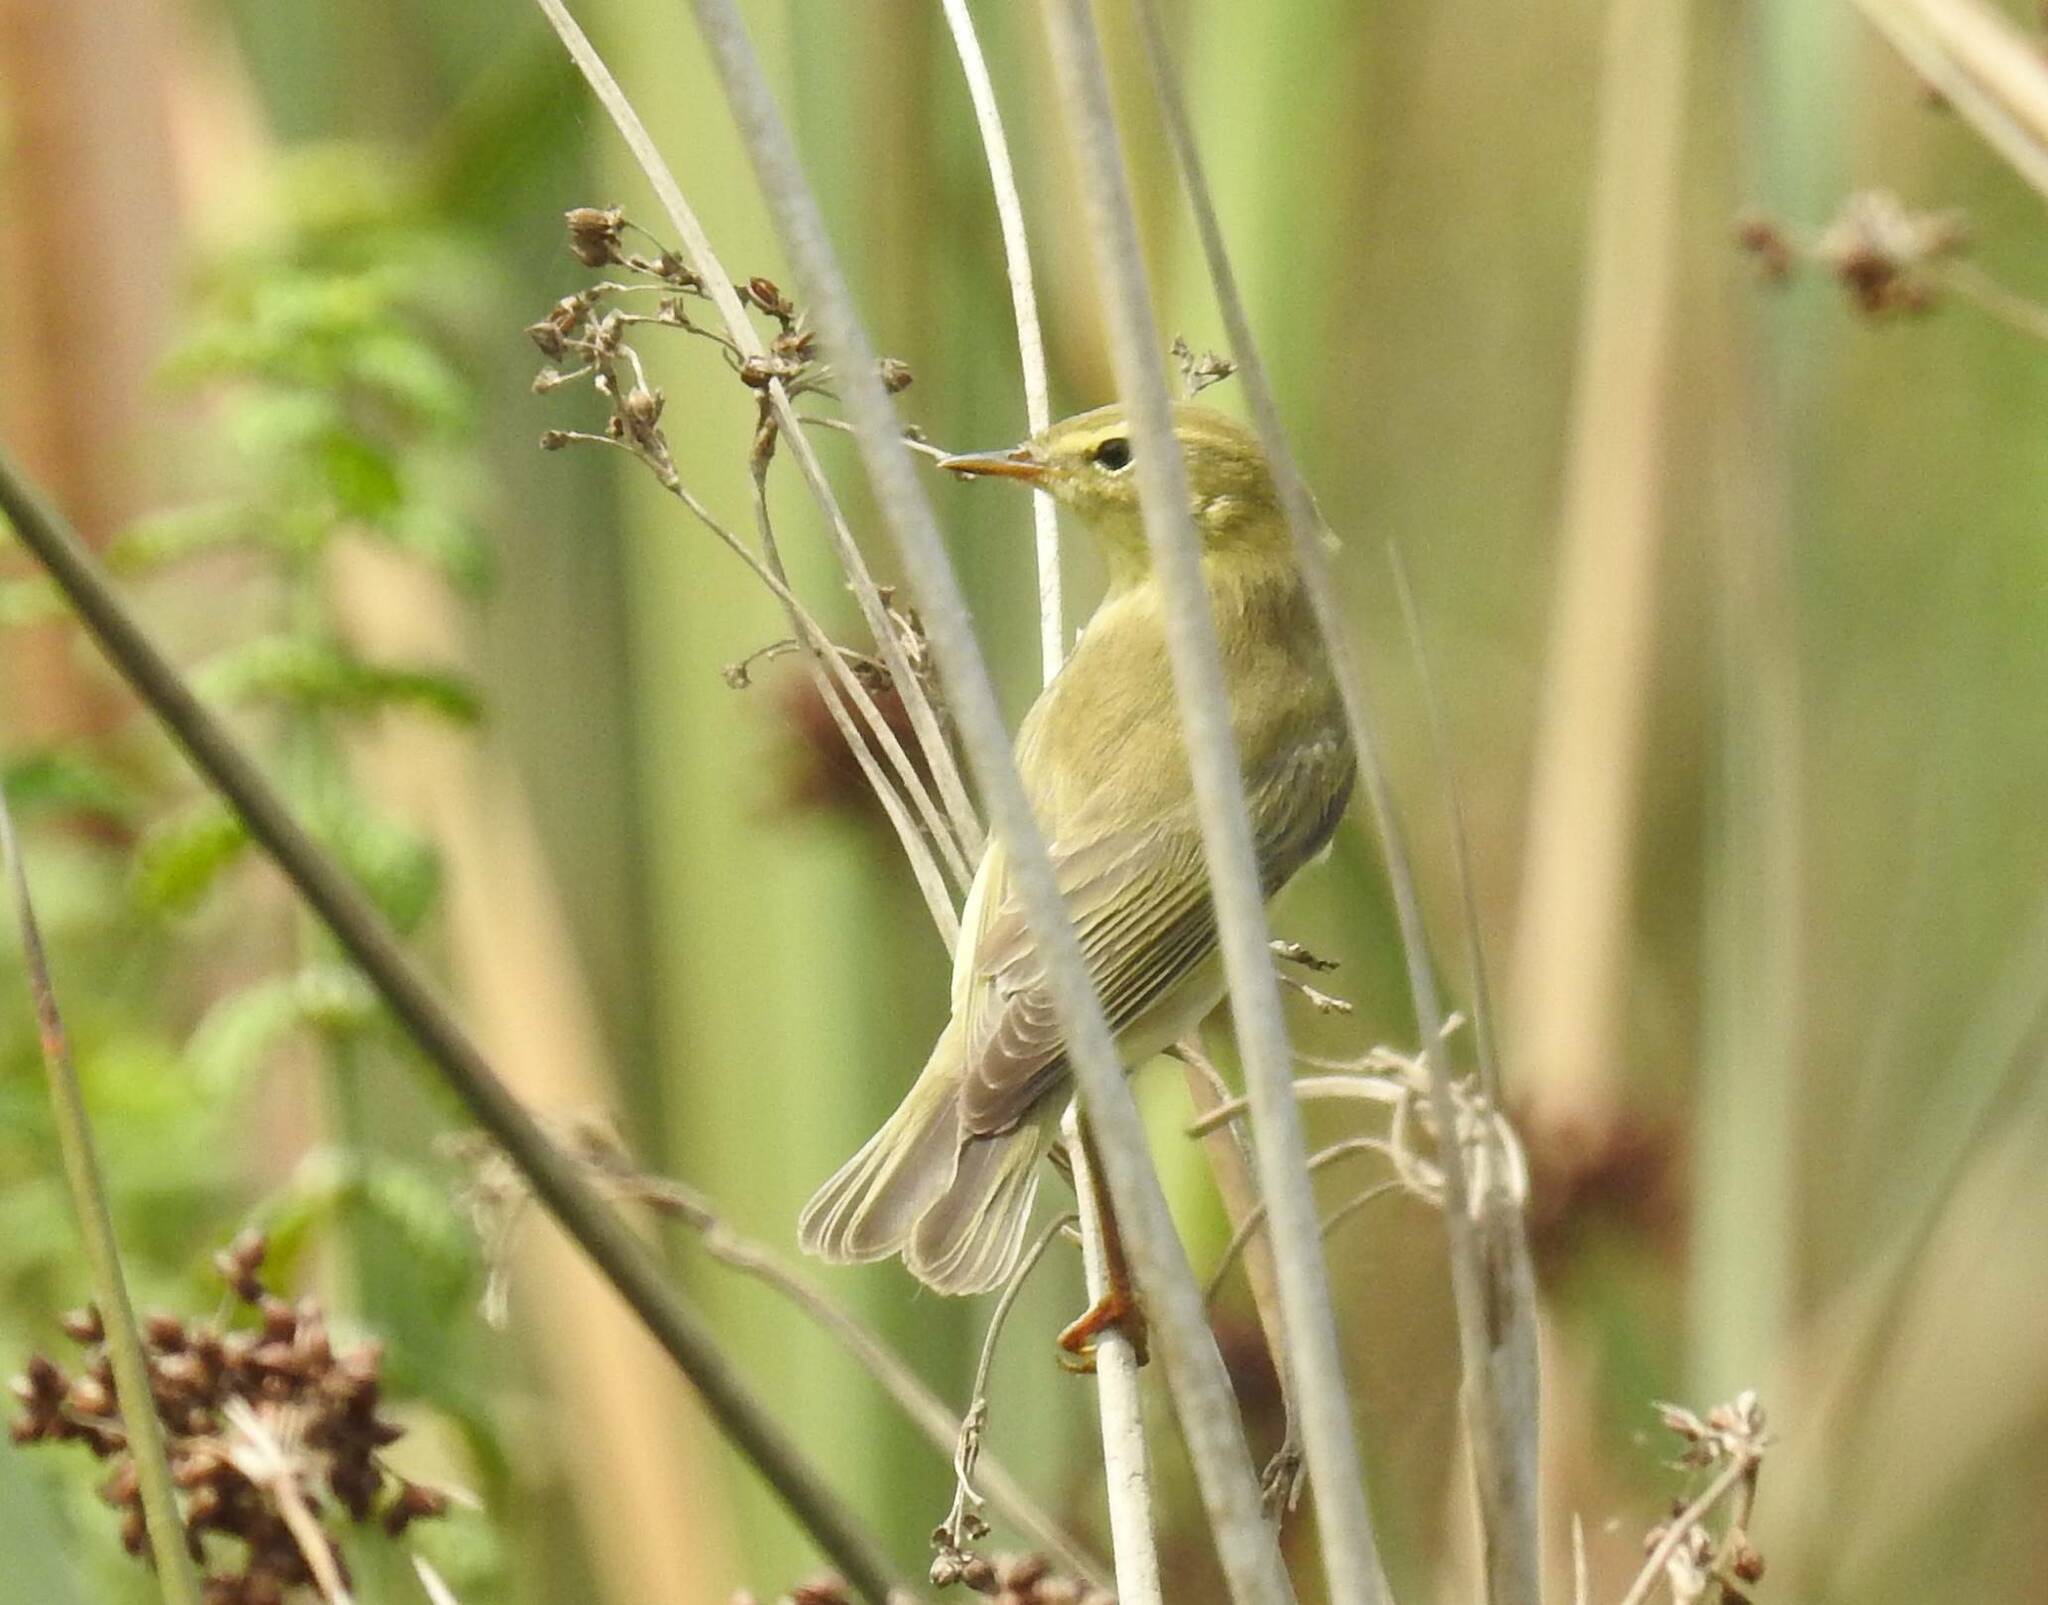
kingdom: Animalia
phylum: Chordata
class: Aves
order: Passeriformes
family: Phylloscopidae
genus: Phylloscopus
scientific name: Phylloscopus trochilus
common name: Willow warbler
